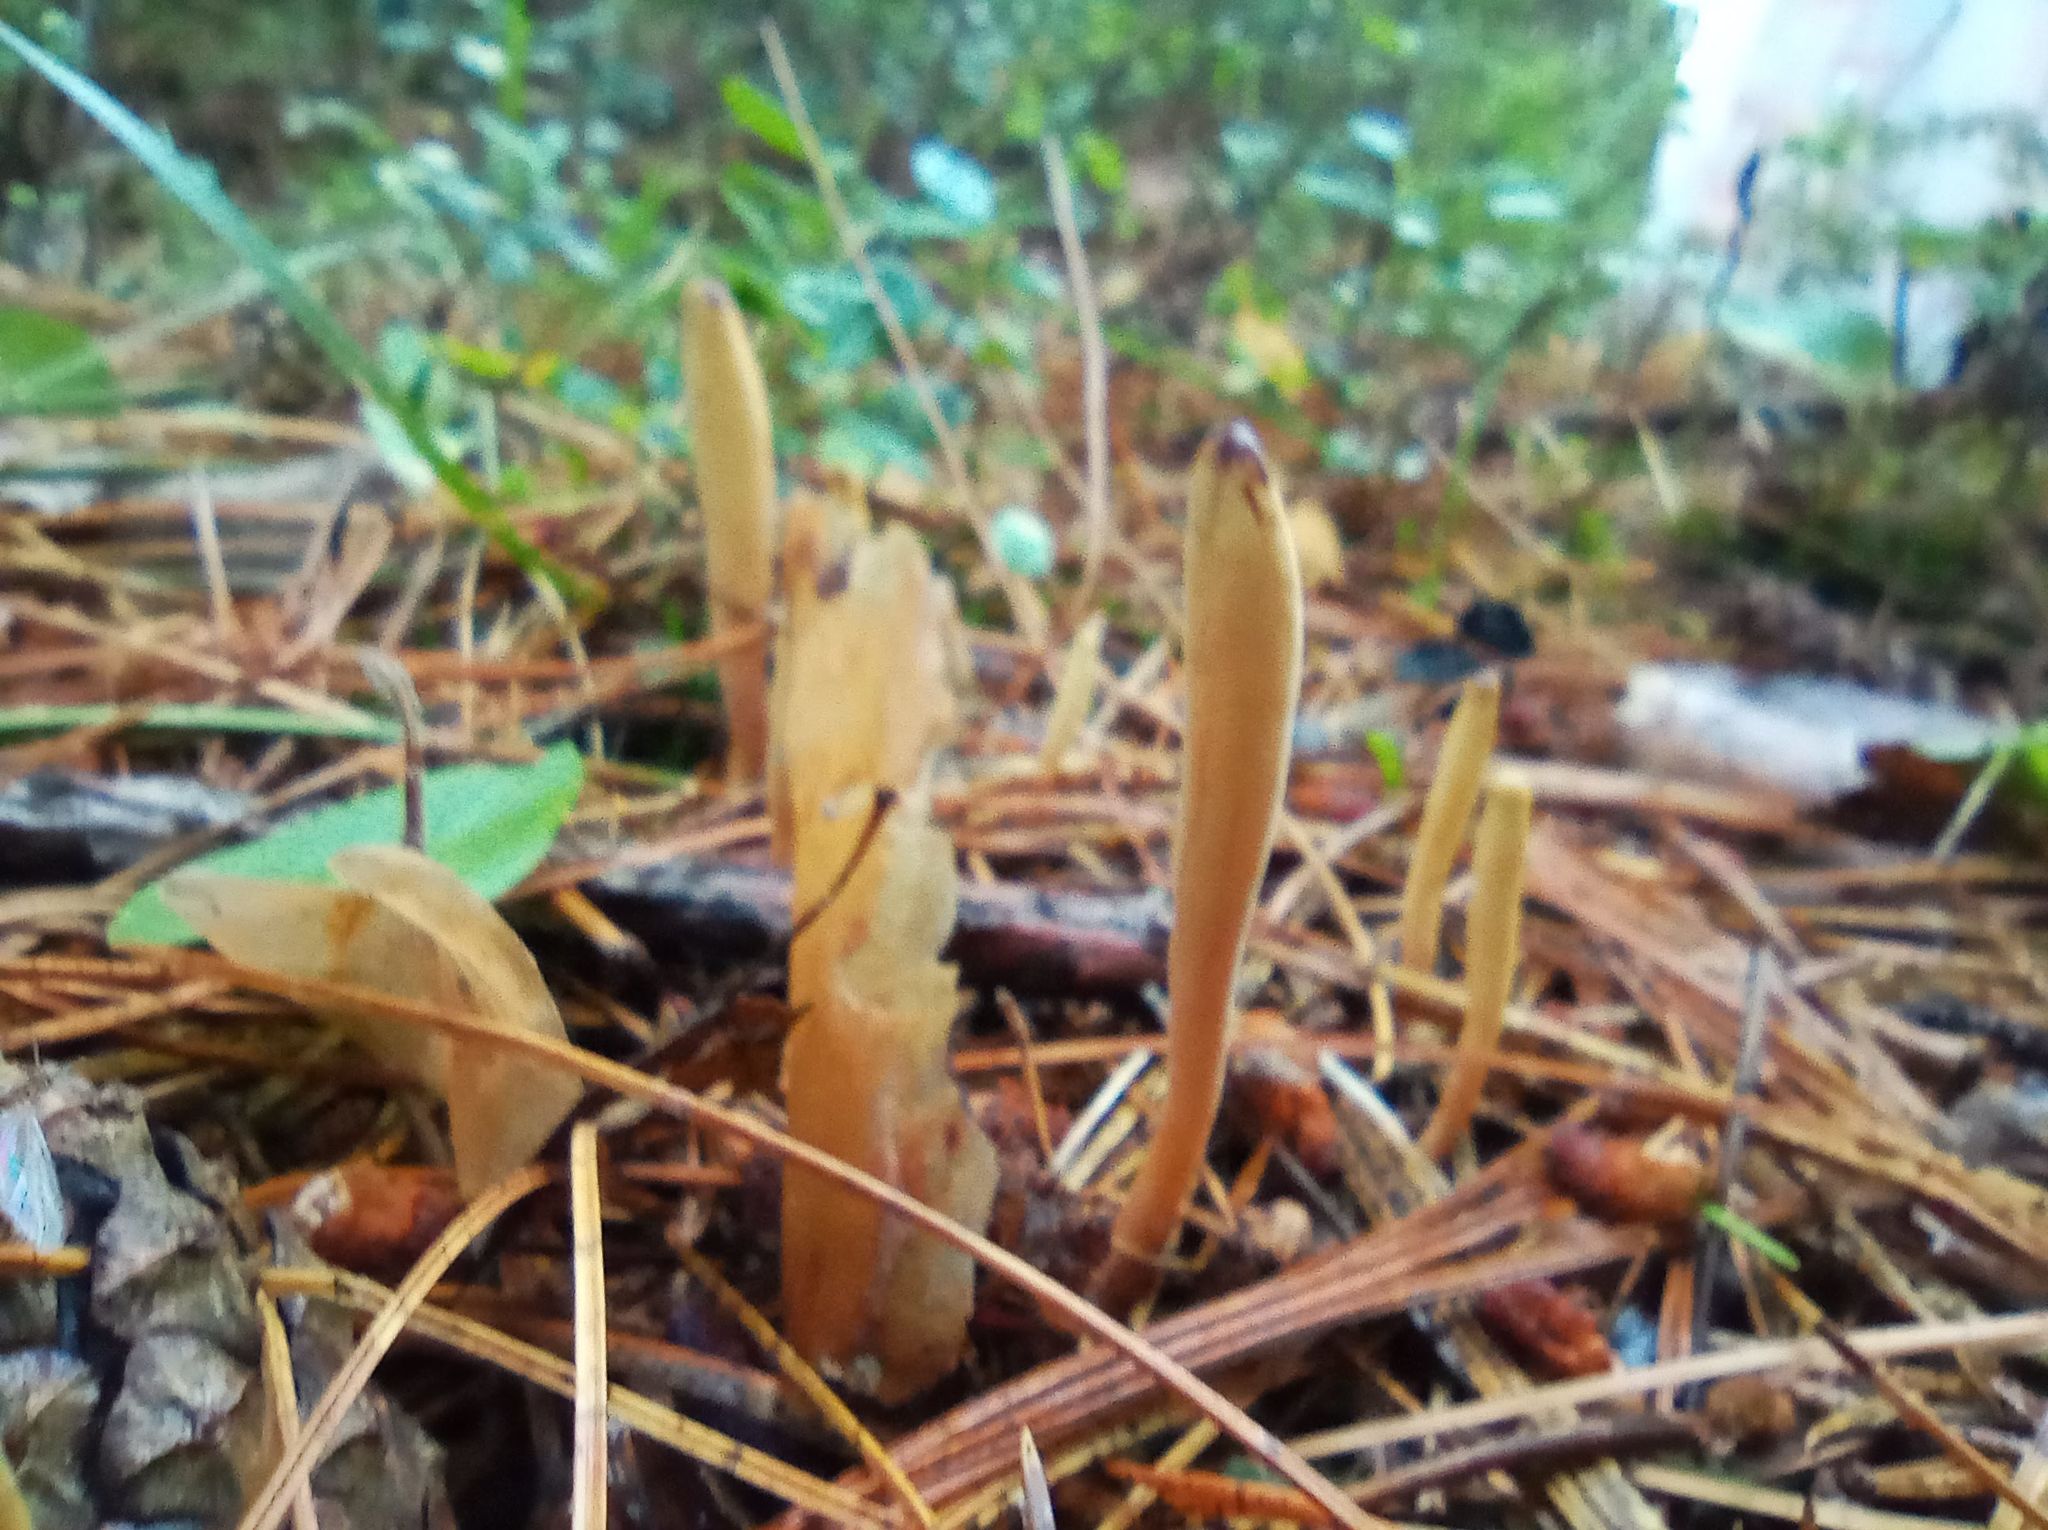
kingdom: Fungi
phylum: Basidiomycota
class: Agaricomycetes
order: Agaricales
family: Typhulaceae
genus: Typhula
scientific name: Typhula fistulosa
